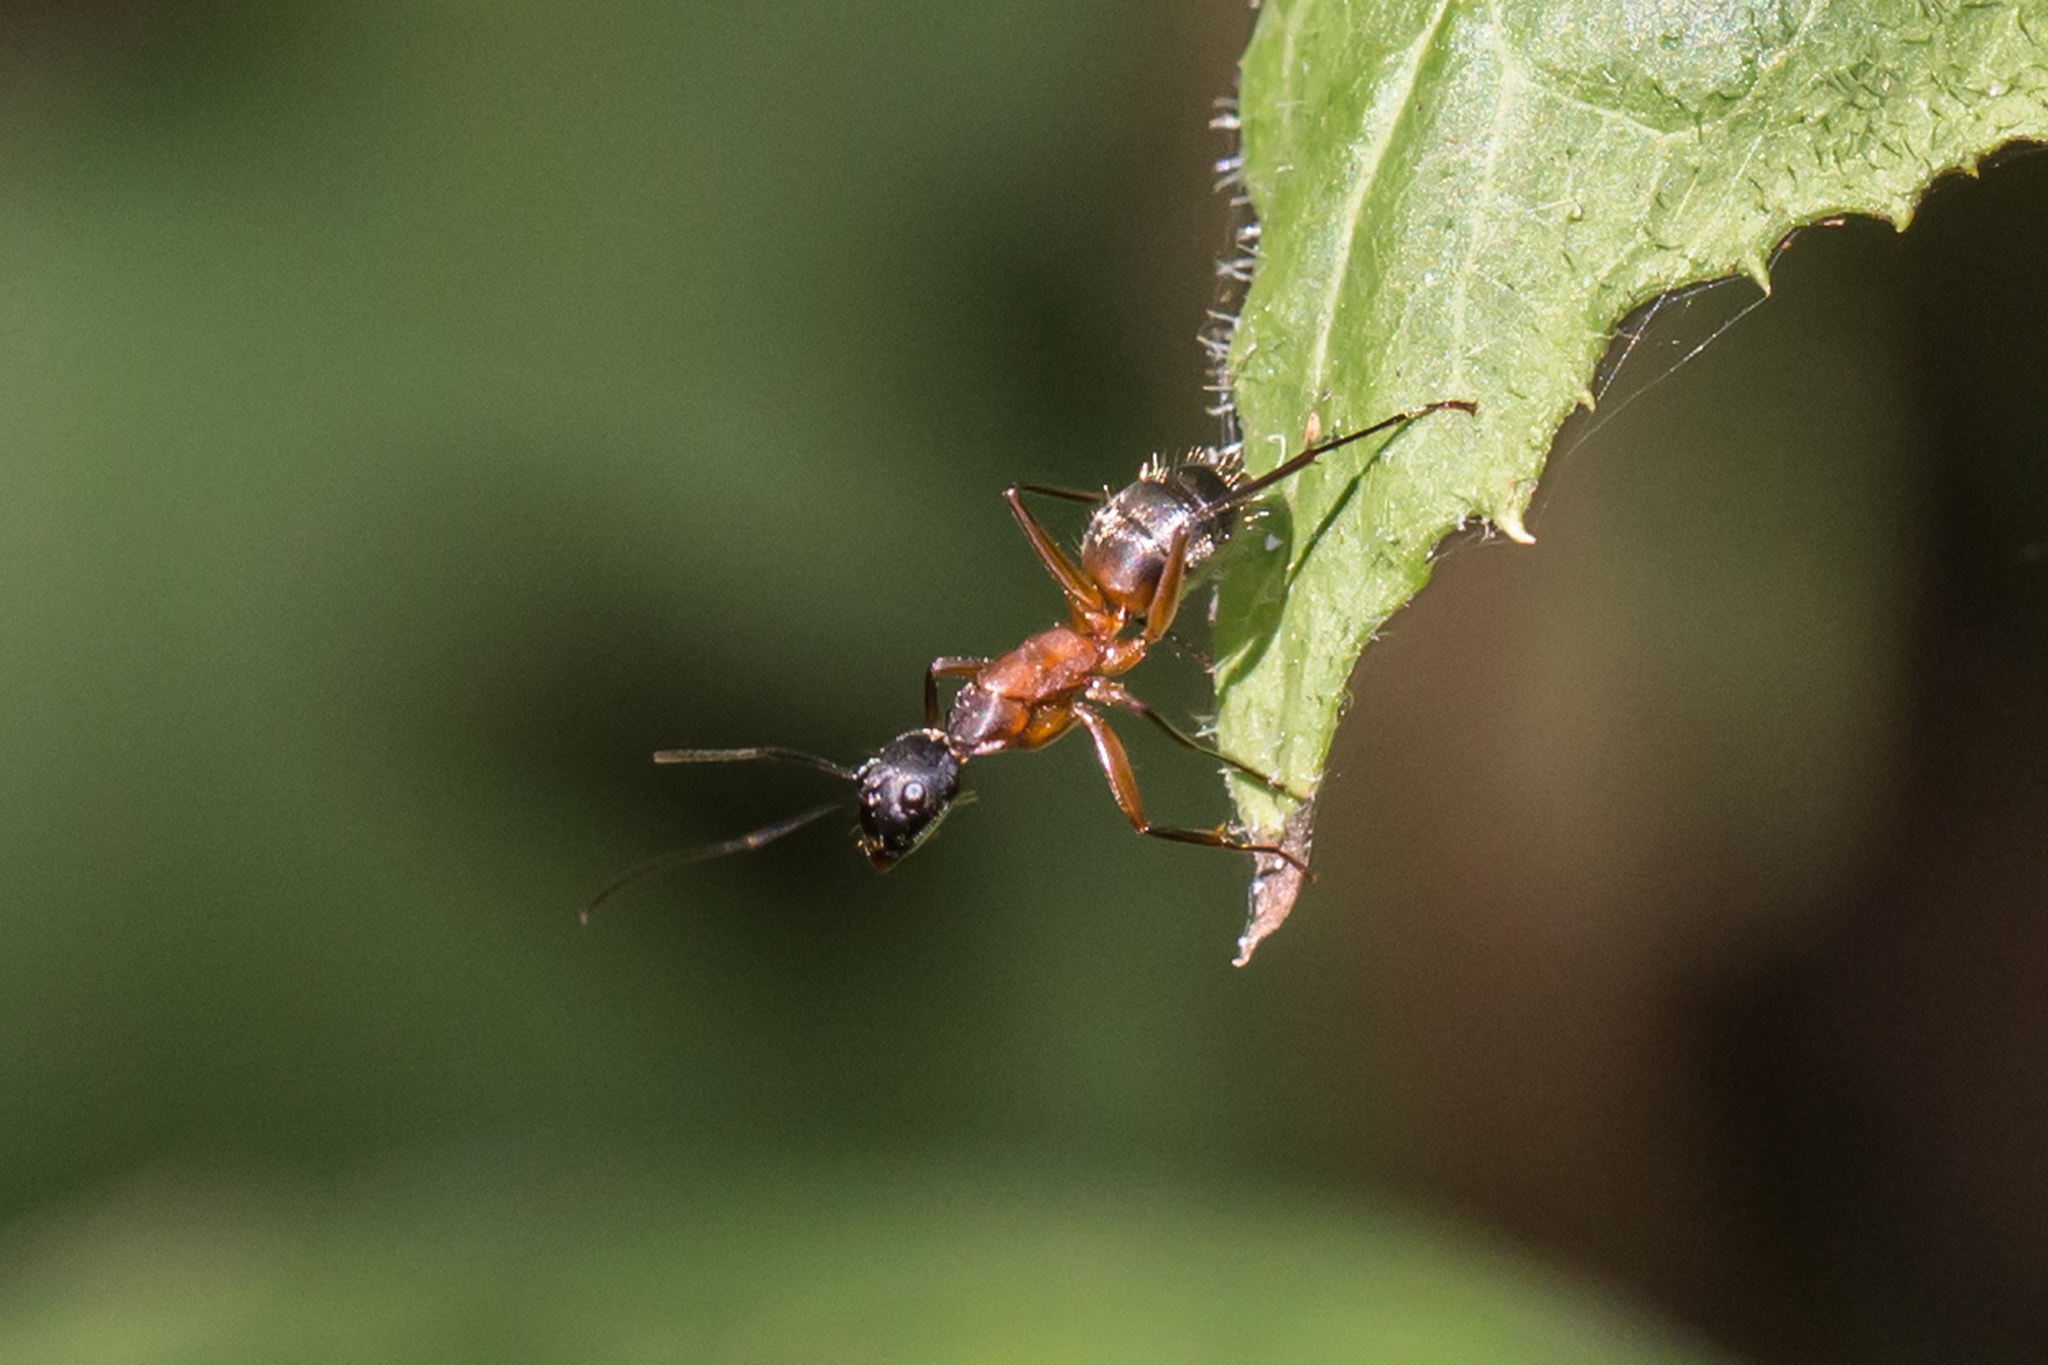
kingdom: Animalia
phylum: Arthropoda
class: Insecta
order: Hymenoptera
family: Formicidae
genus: Camponotus
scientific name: Camponotus chromaiodes
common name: Red carpenter ant
